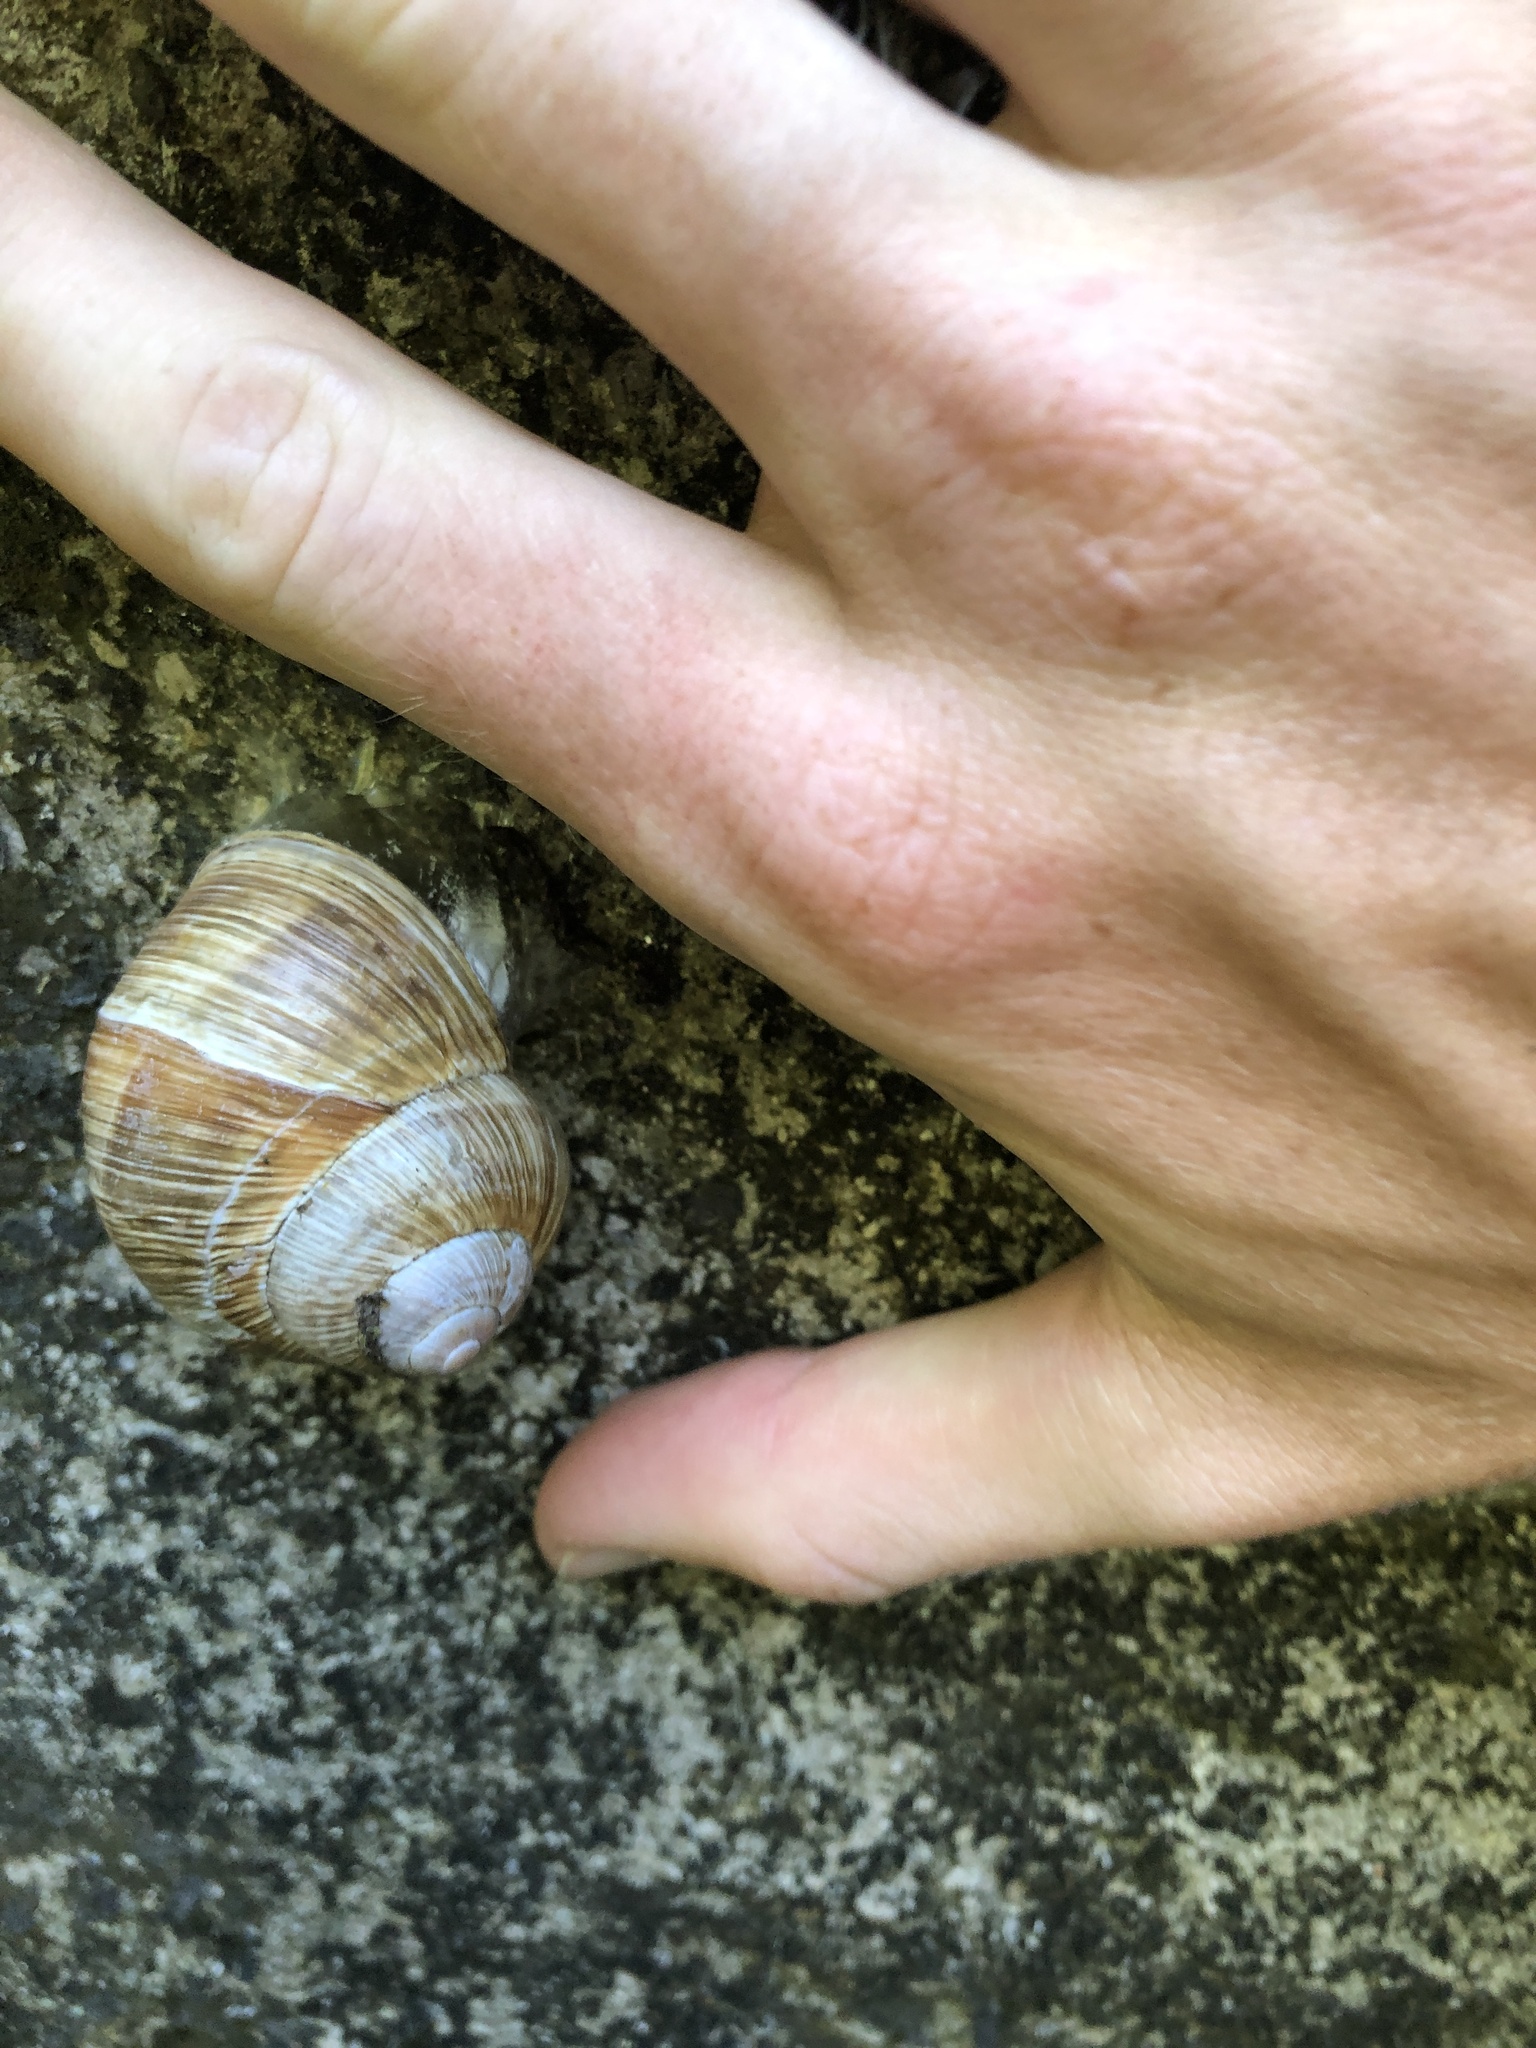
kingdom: Animalia
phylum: Mollusca
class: Gastropoda
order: Stylommatophora
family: Helicidae
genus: Helix
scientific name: Helix pomatia
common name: Roman snail
